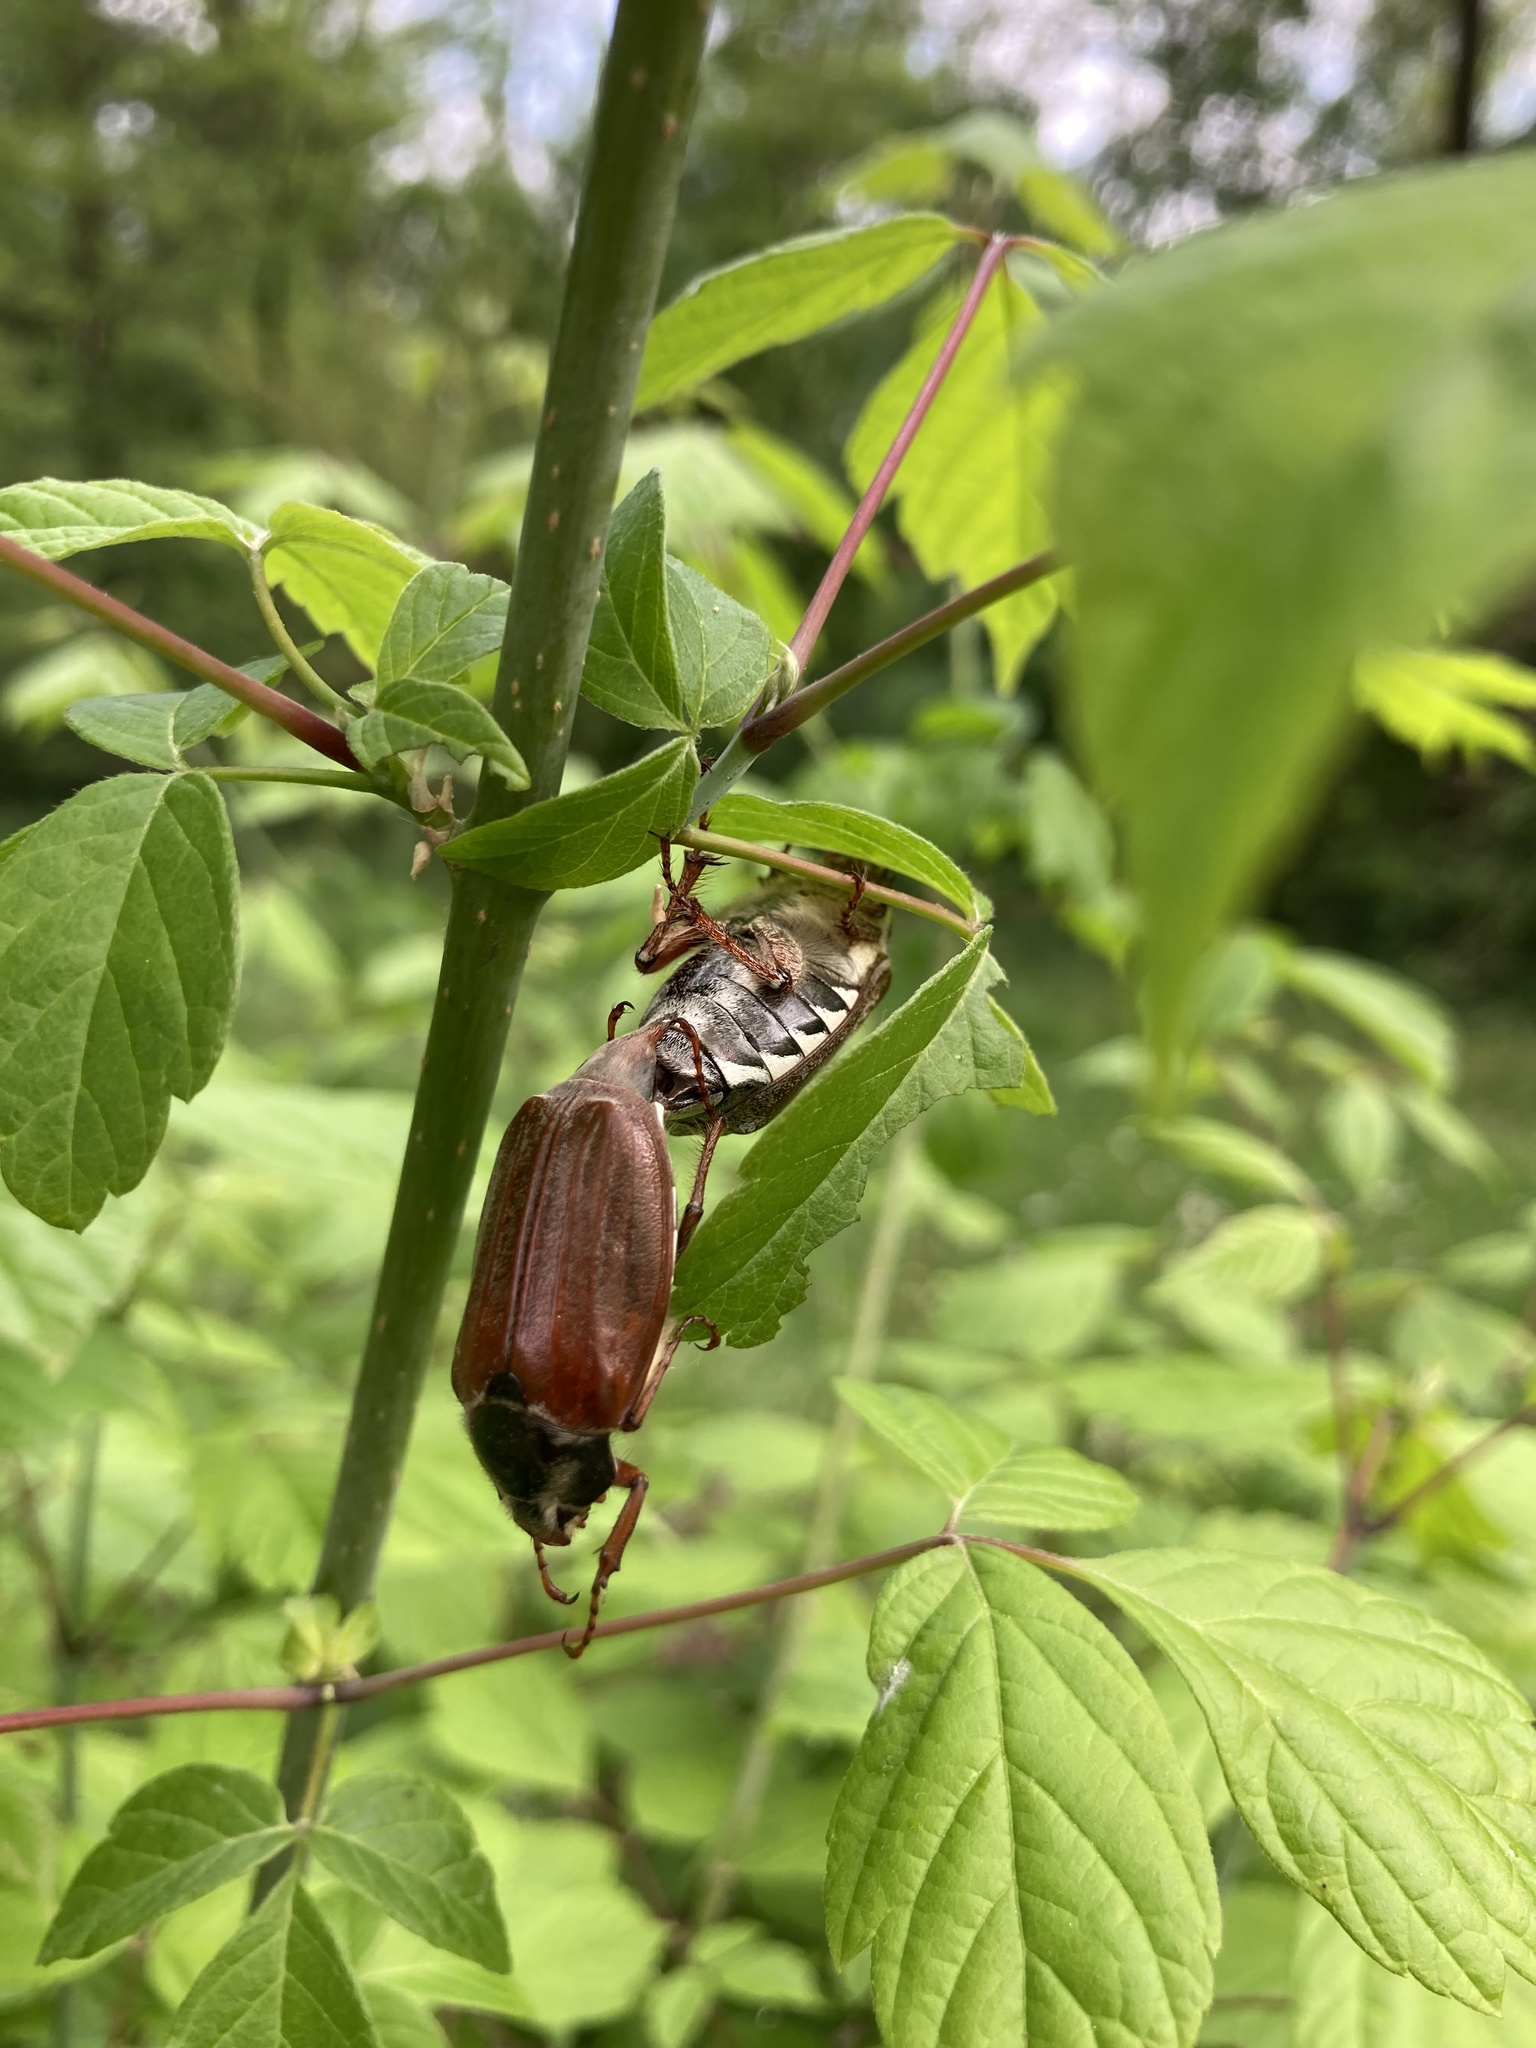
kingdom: Animalia
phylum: Arthropoda
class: Insecta
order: Coleoptera
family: Scarabaeidae
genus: Melolontha
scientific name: Melolontha melolontha
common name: Cockchafer maybeetle
